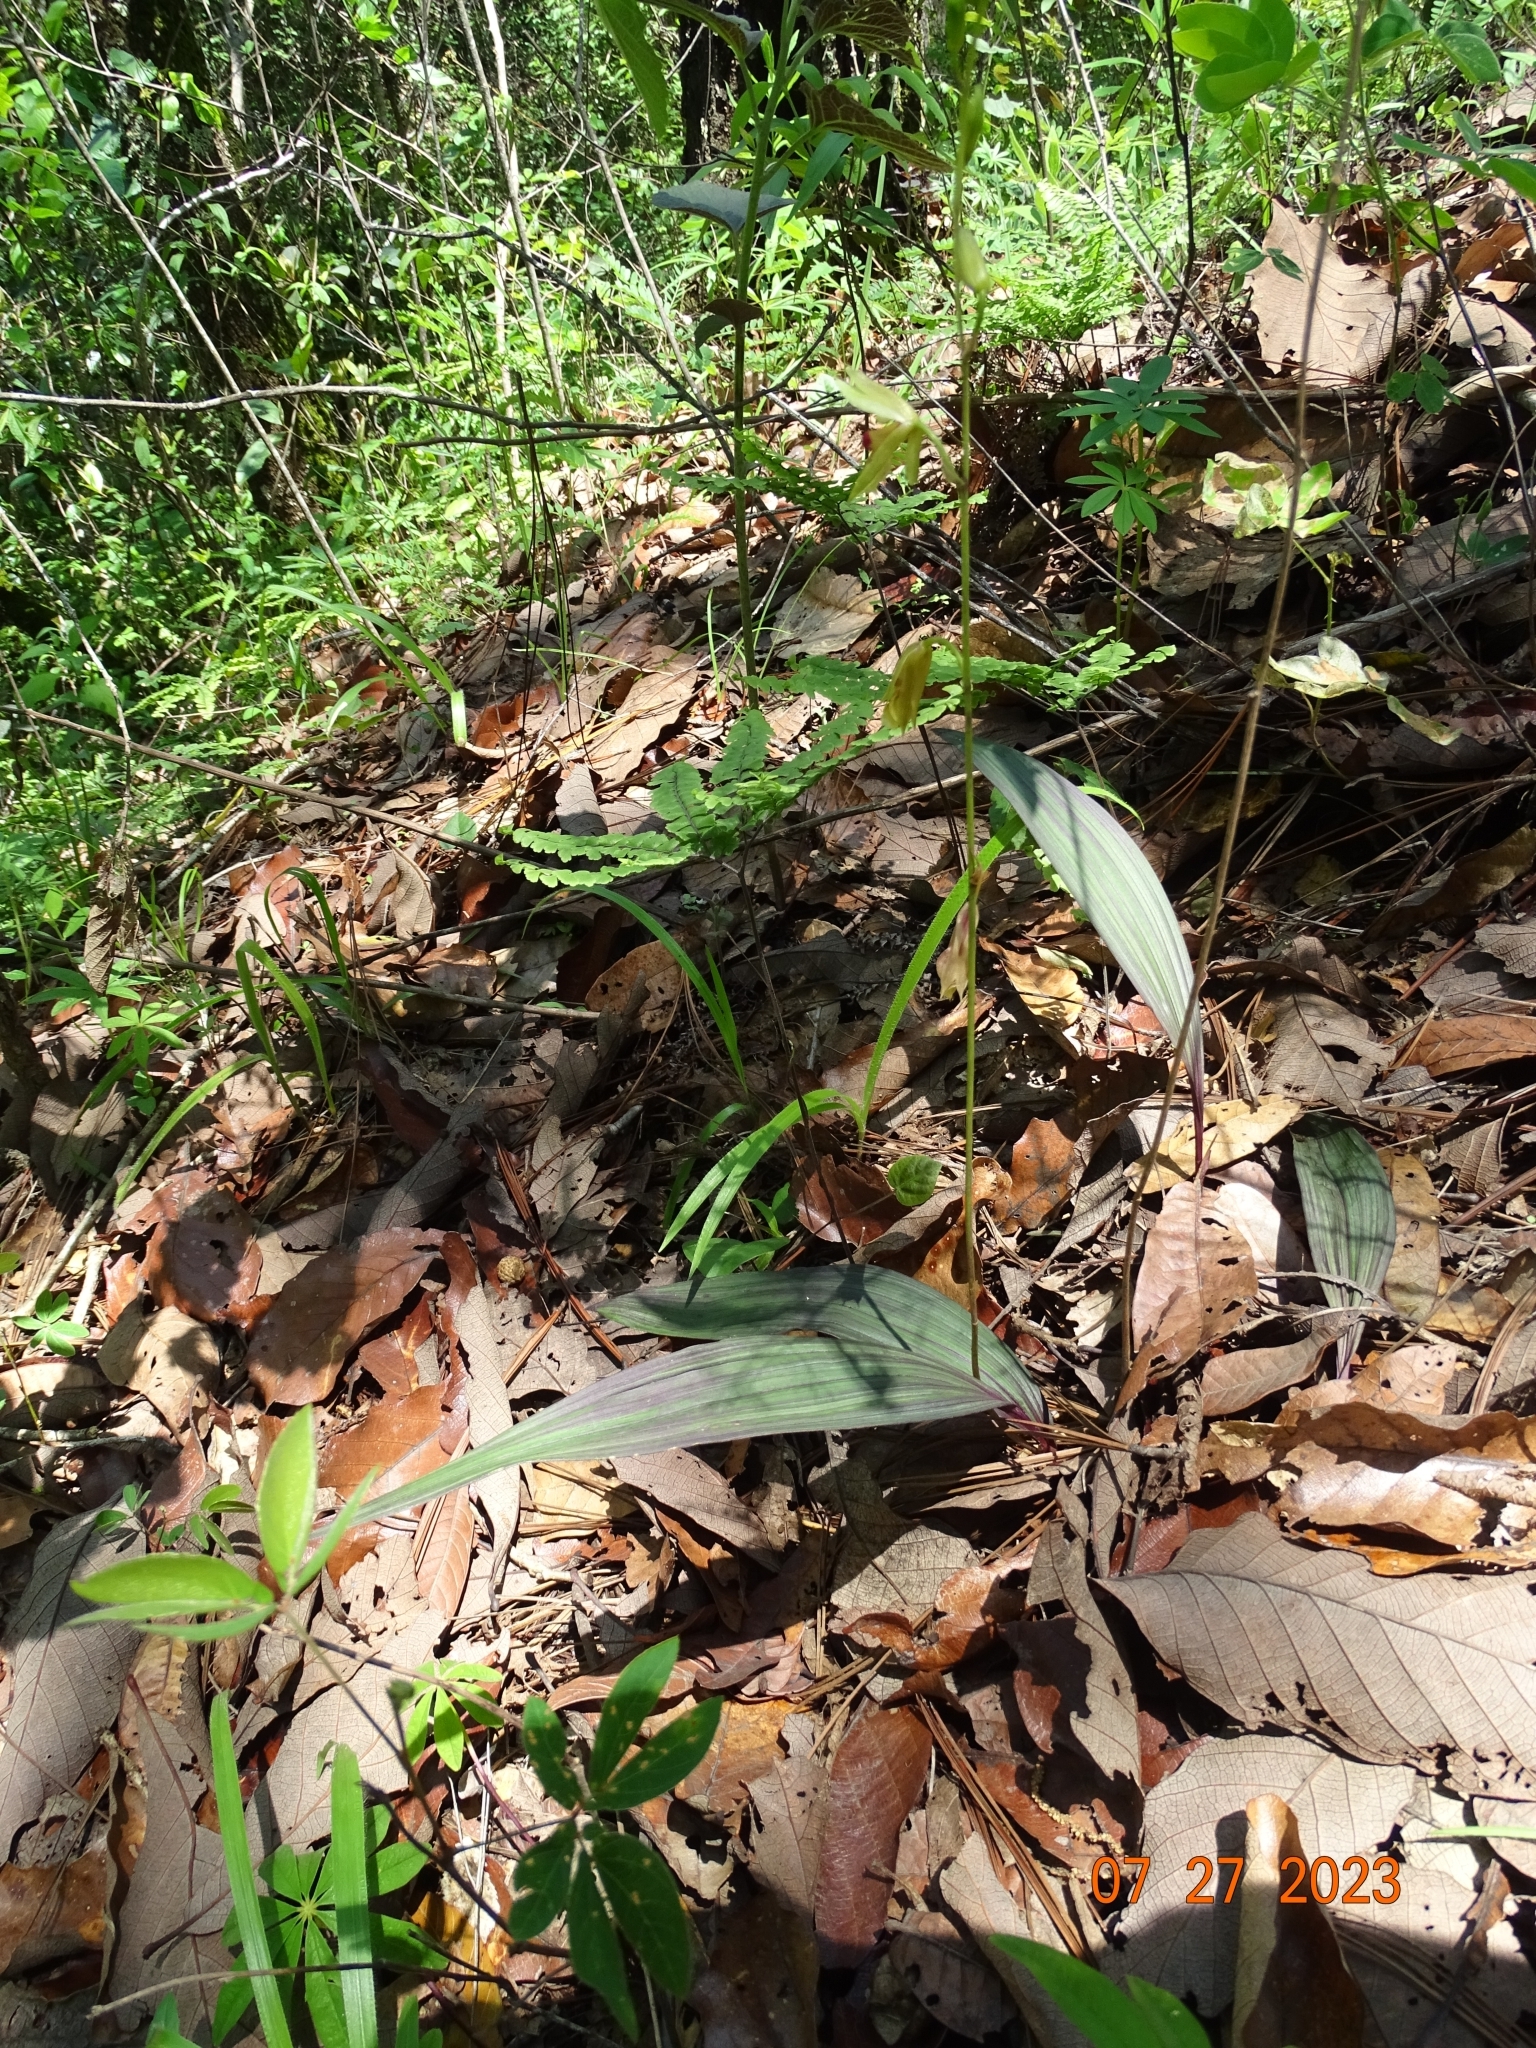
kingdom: Plantae
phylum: Tracheophyta
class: Liliopsida
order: Asparagales
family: Orchidaceae
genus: Bletia
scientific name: Bletia roezlii
